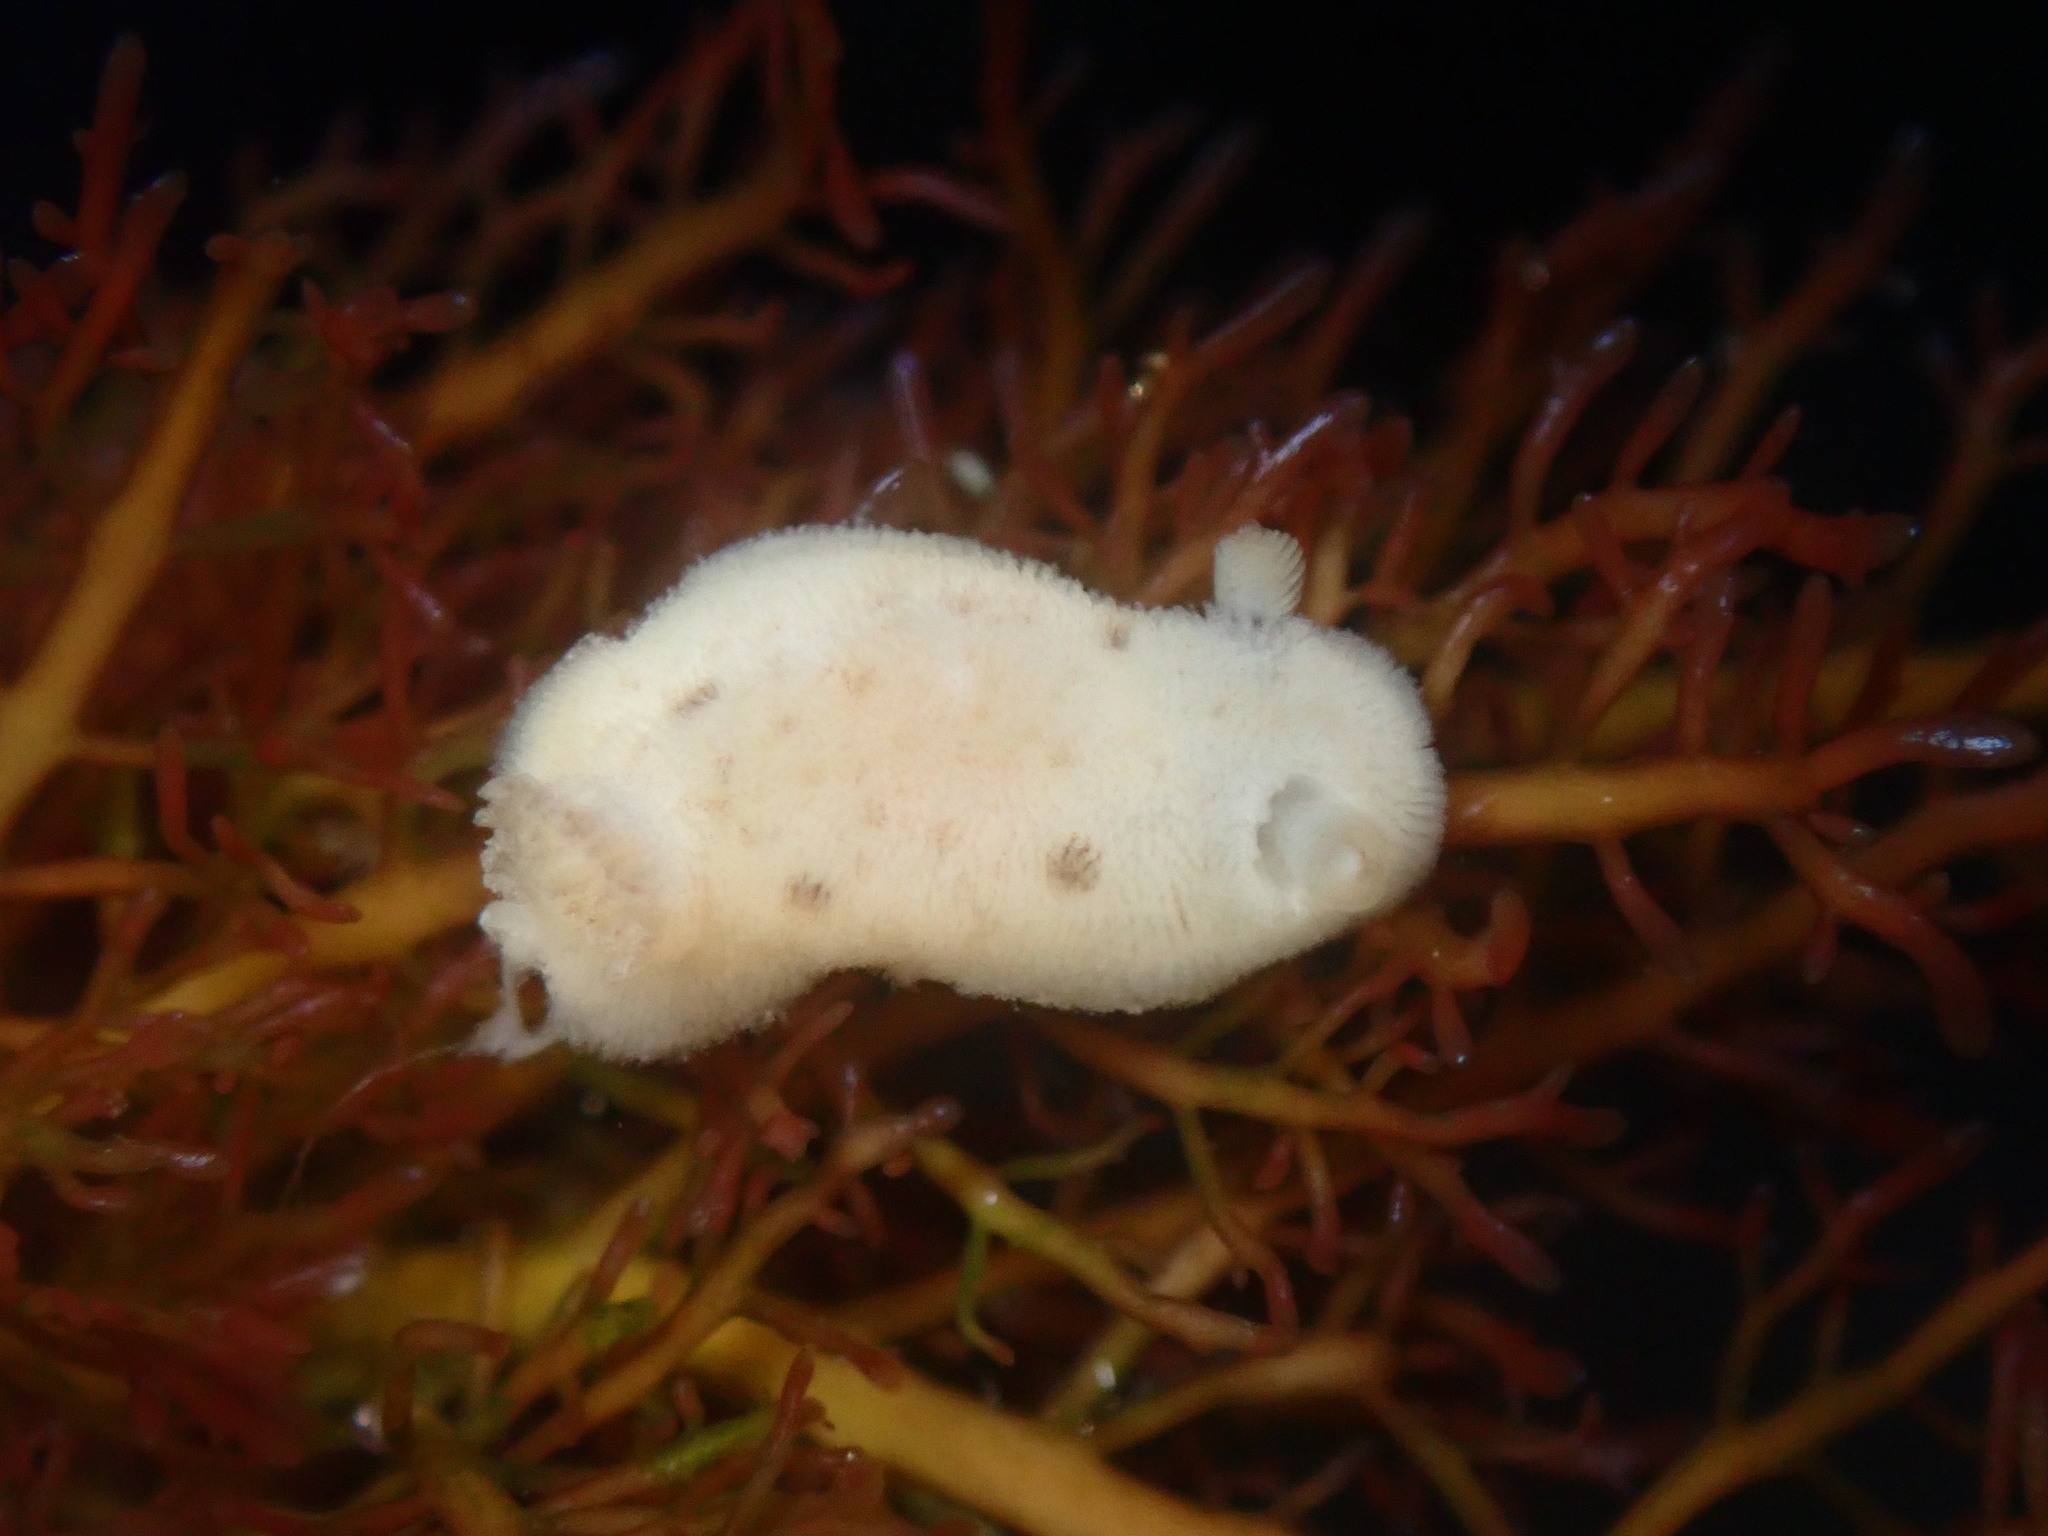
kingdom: Animalia
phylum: Mollusca
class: Gastropoda
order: Nudibranchia
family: Discodorididae
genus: Diaulula
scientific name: Diaulula sandiegensis
